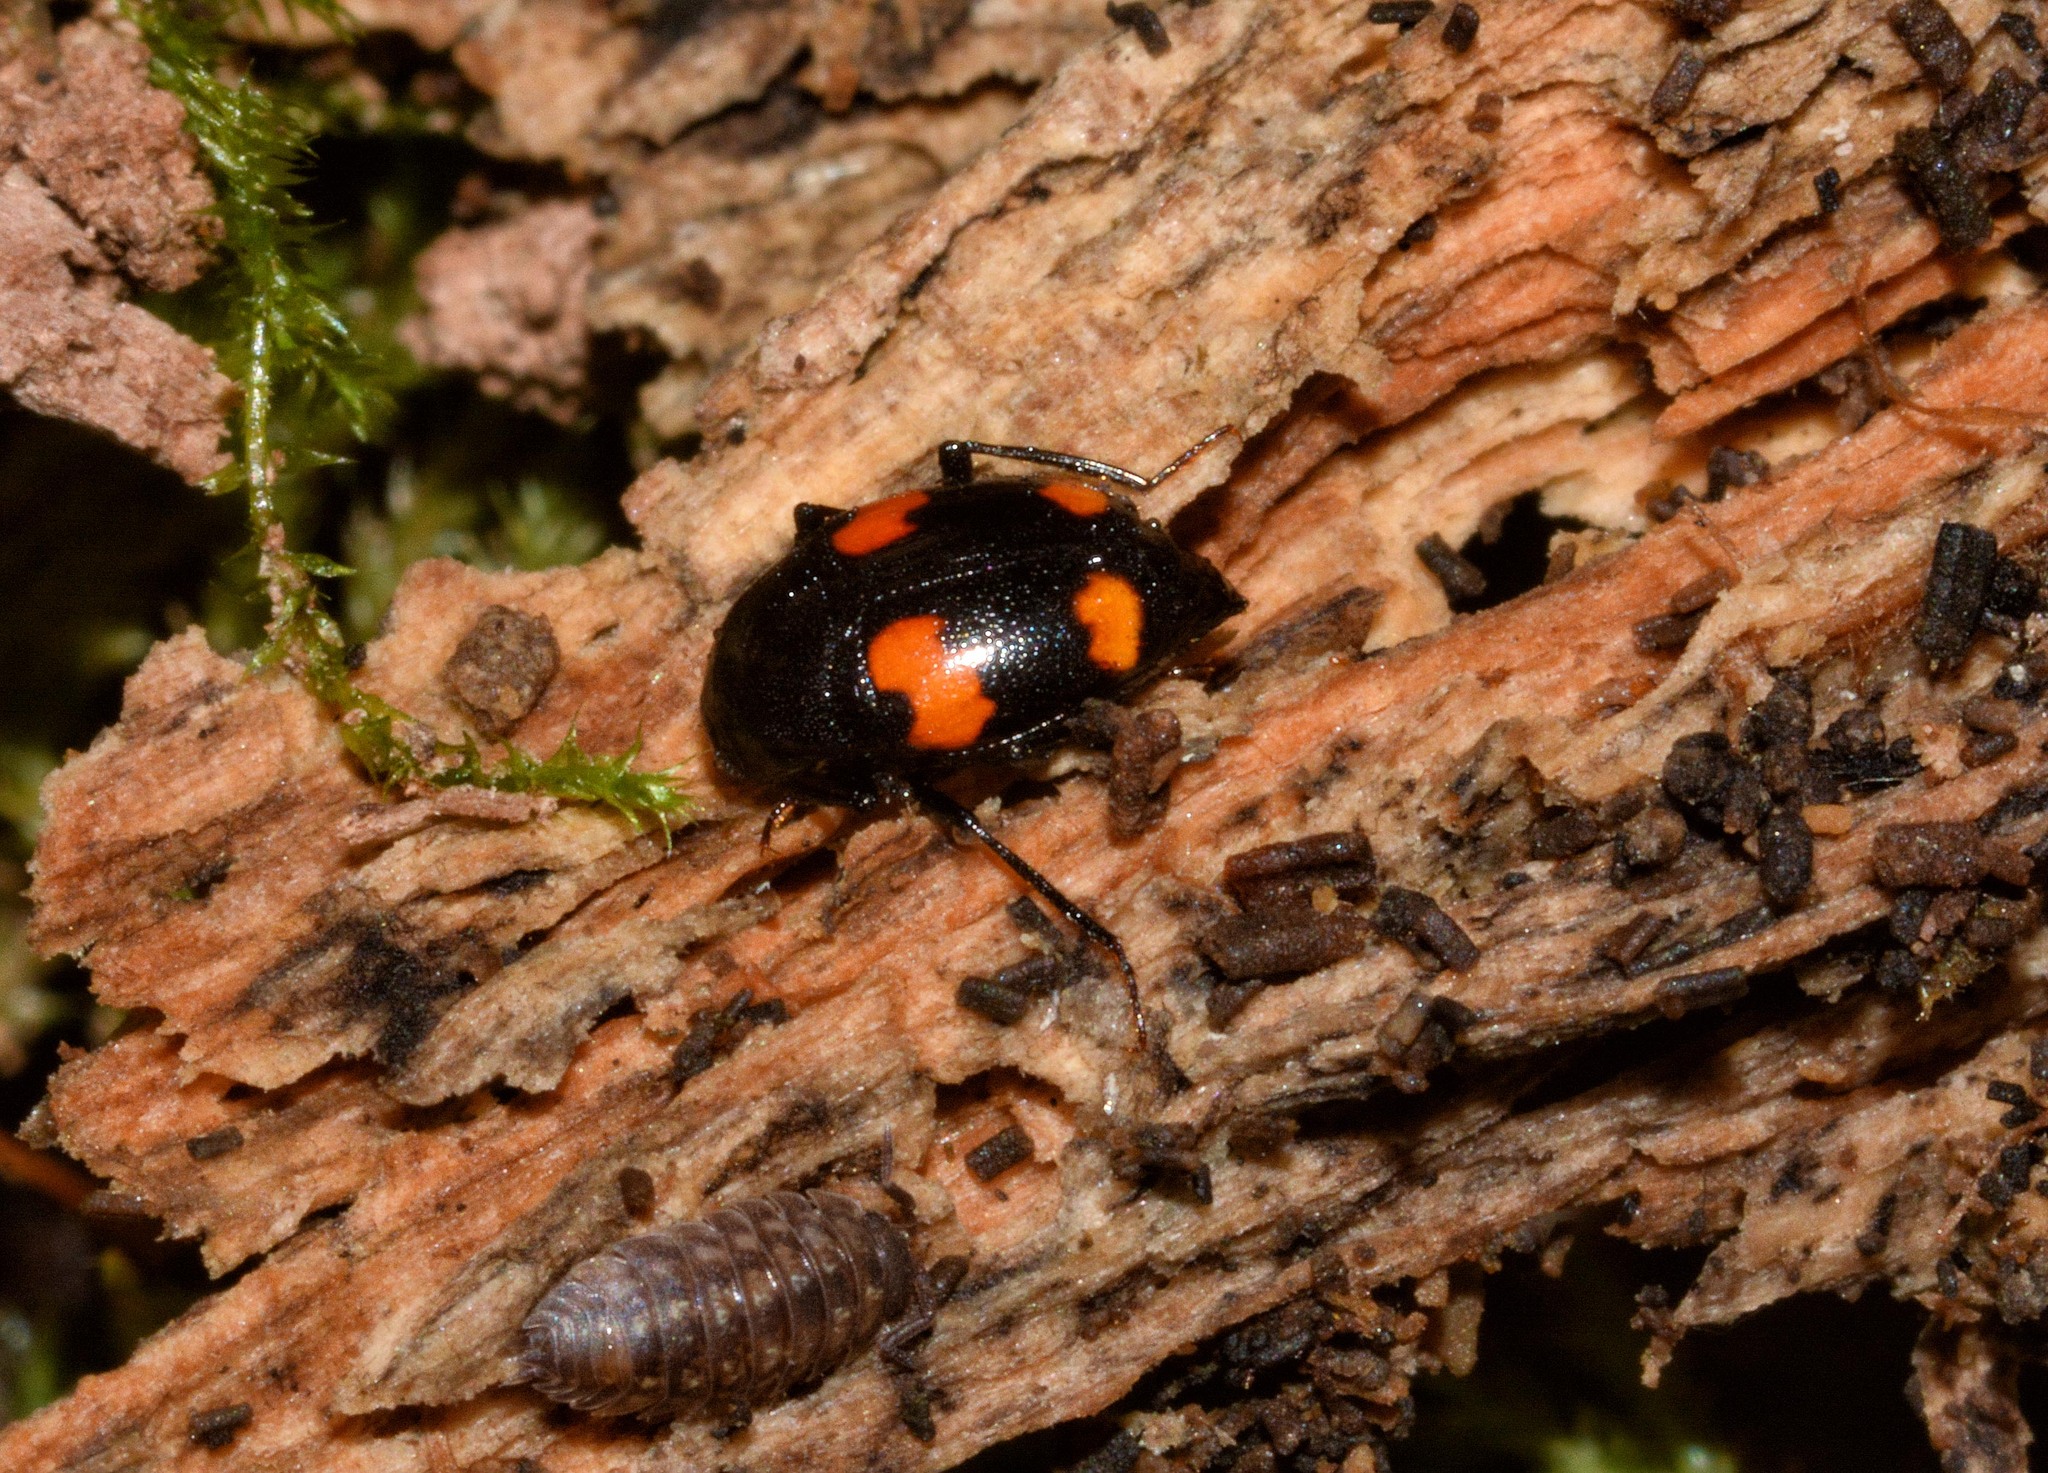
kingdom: Animalia
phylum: Arthropoda
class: Insecta
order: Coleoptera
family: Staphylinidae
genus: Scaphidium
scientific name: Scaphidium quadrimaculatum
